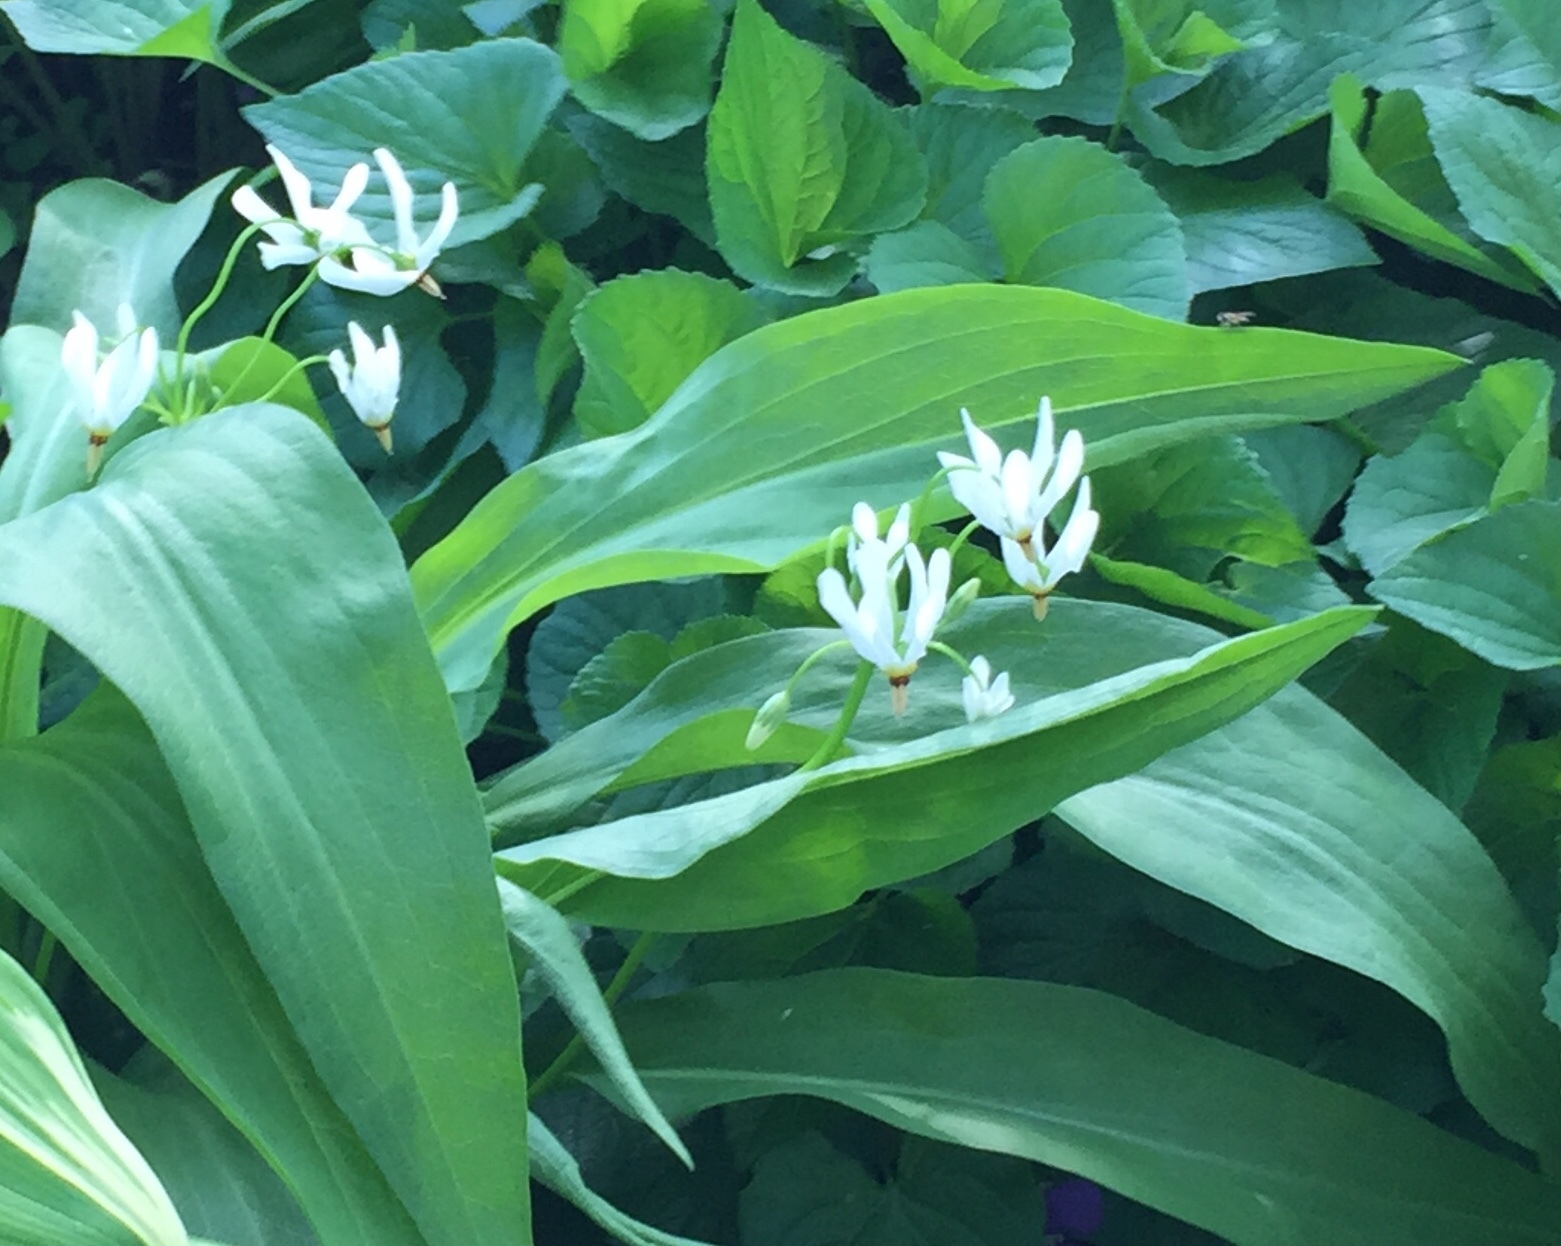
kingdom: Plantae
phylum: Tracheophyta
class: Magnoliopsida
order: Ericales
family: Primulaceae
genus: Dodecatheon
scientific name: Dodecatheon meadia
